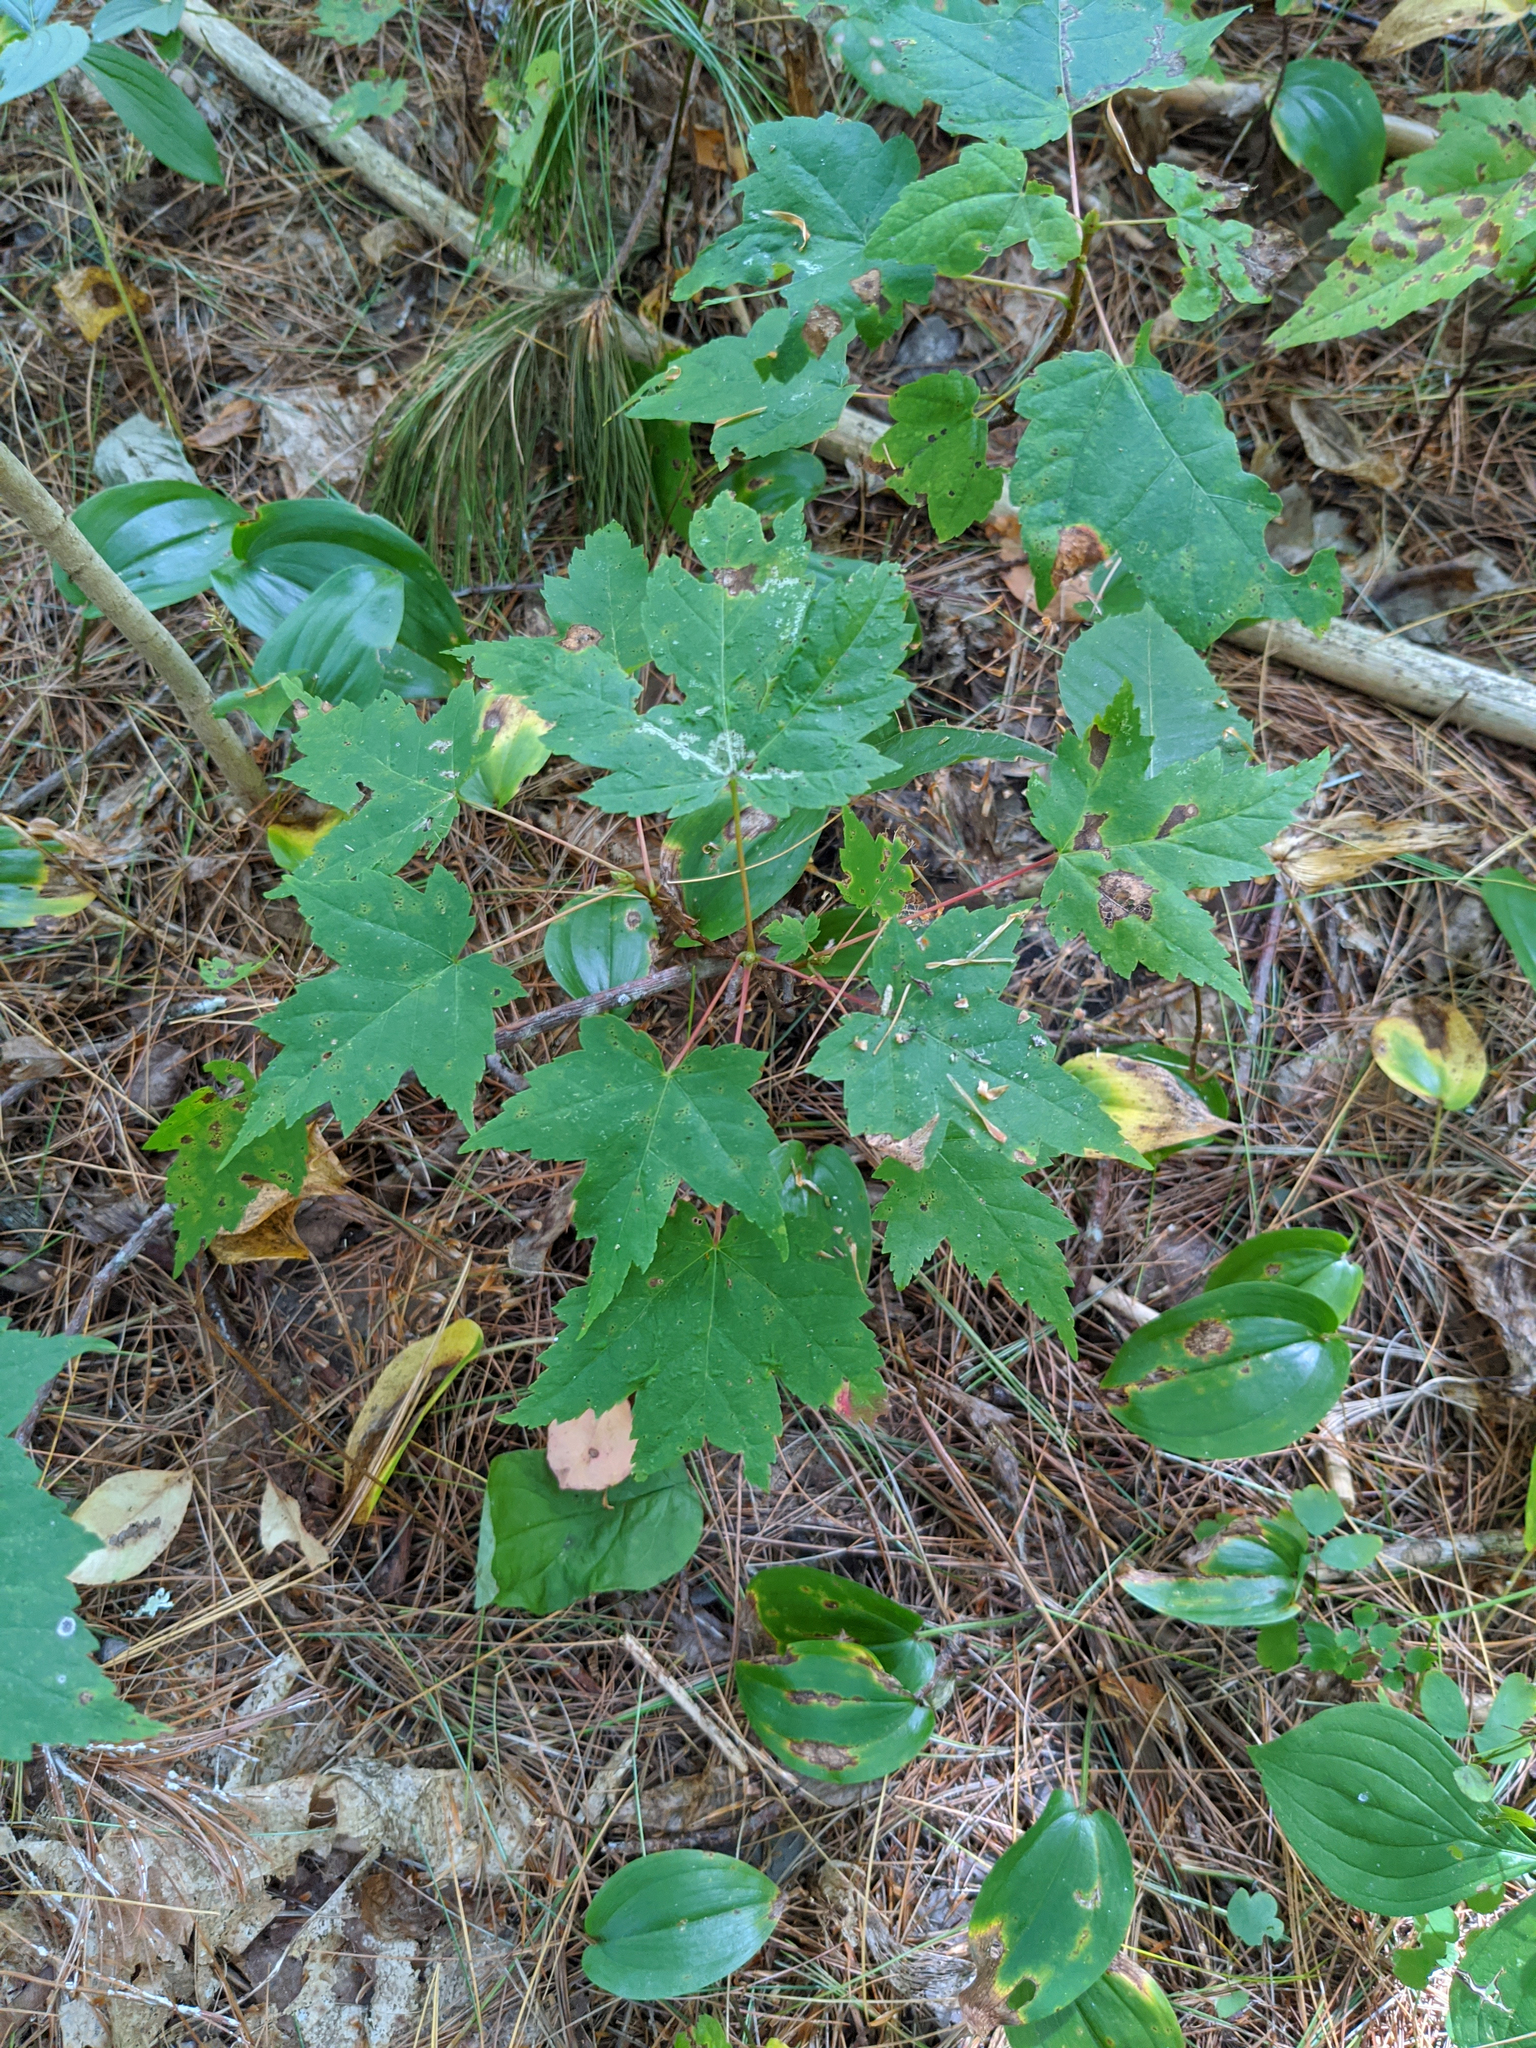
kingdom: Plantae
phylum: Tracheophyta
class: Magnoliopsida
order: Sapindales
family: Sapindaceae
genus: Acer
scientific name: Acer rubrum
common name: Red maple
